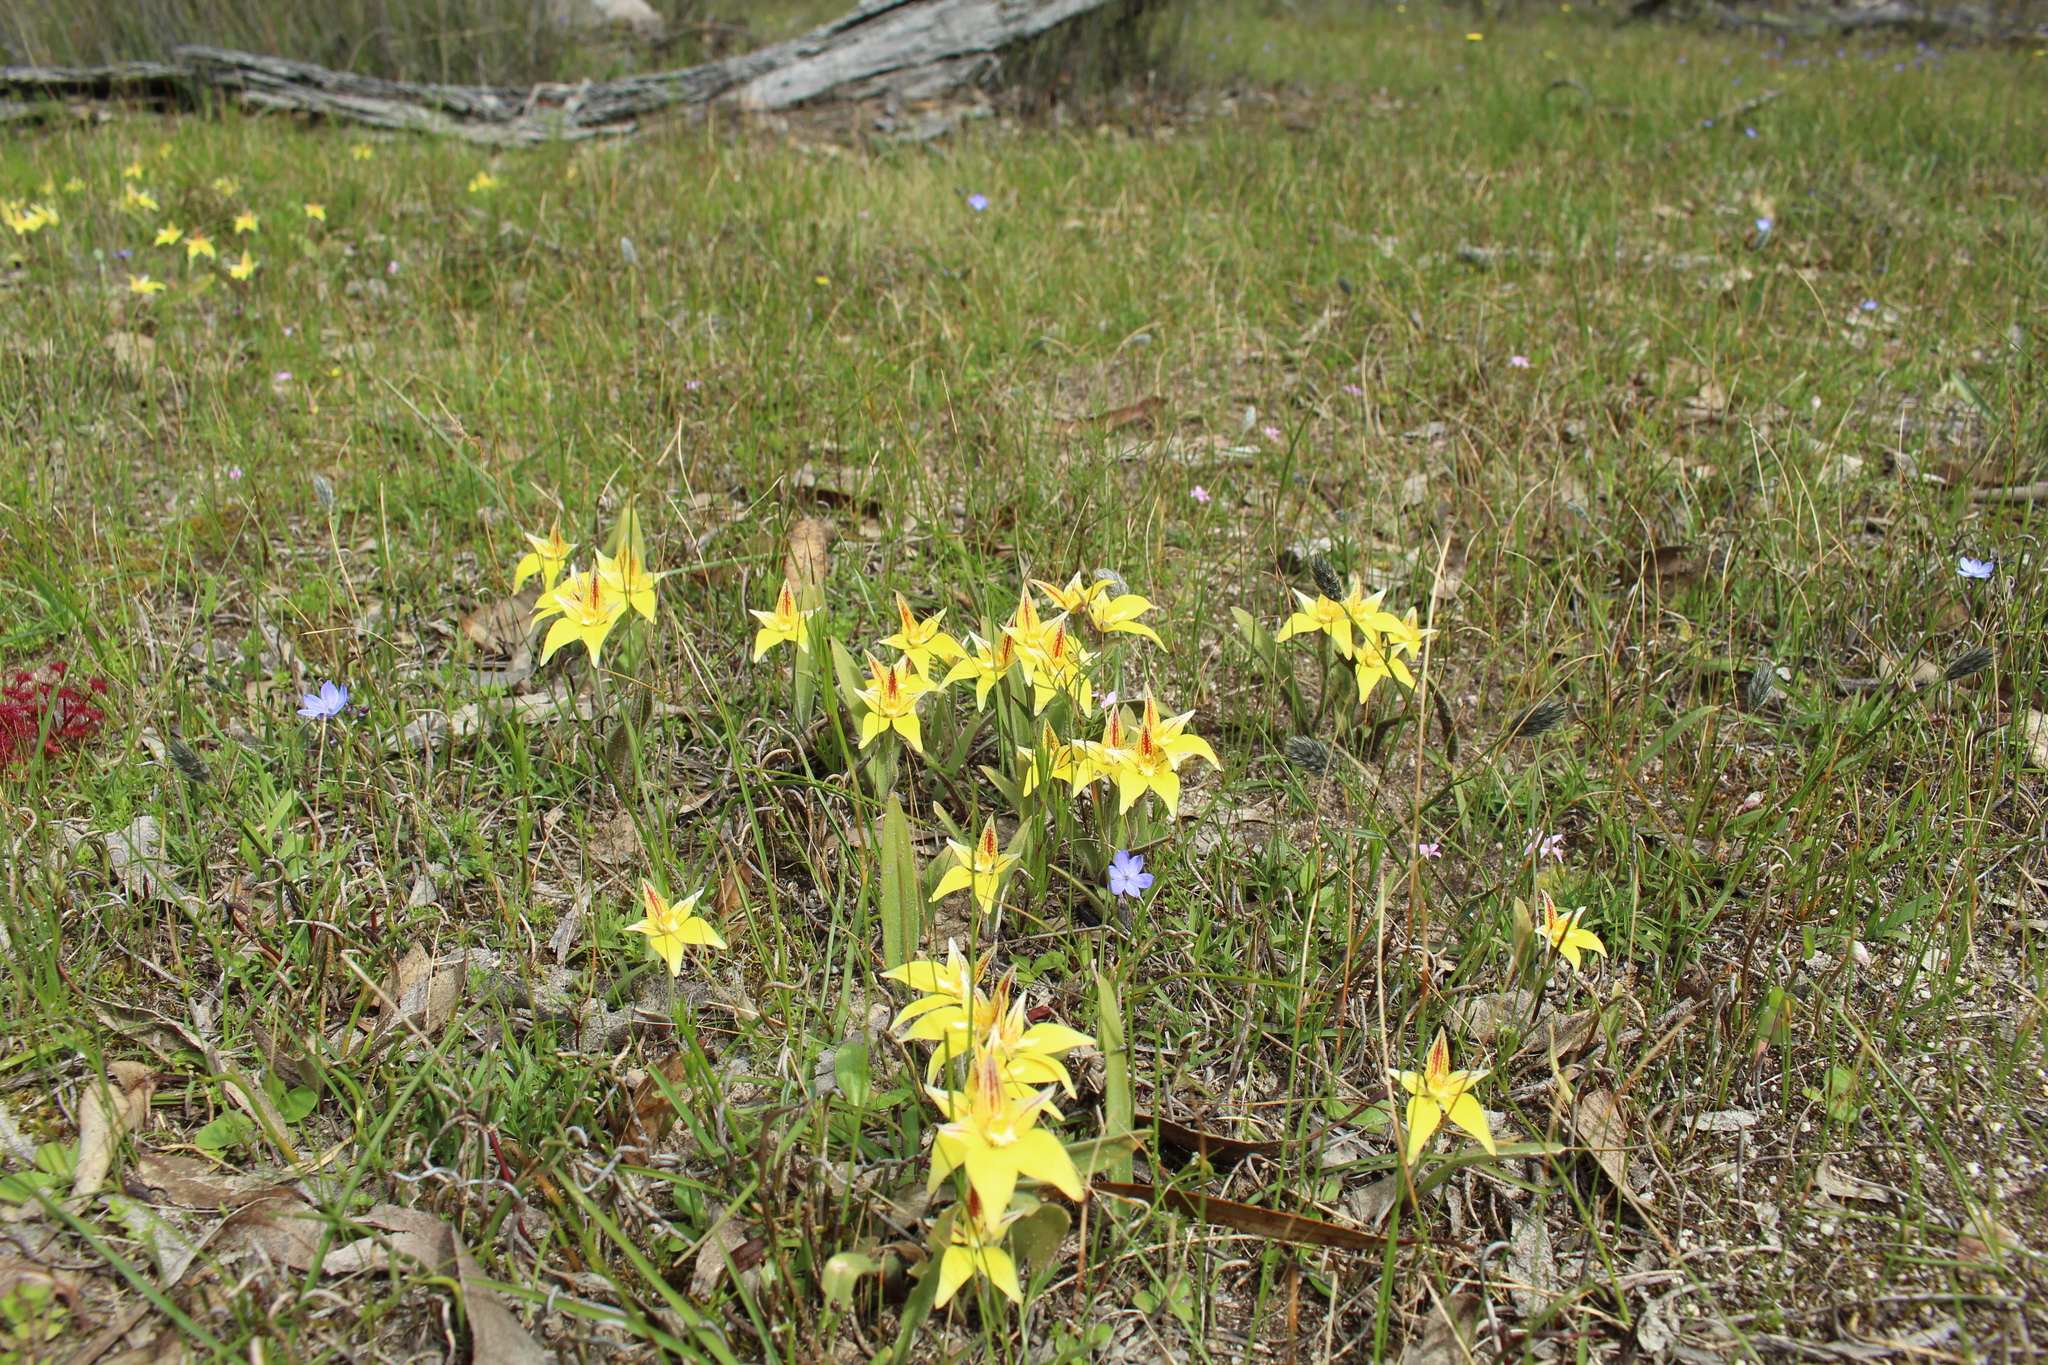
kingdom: Plantae
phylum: Tracheophyta
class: Liliopsida
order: Asparagales
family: Orchidaceae
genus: Caladenia
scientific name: Caladenia flava
